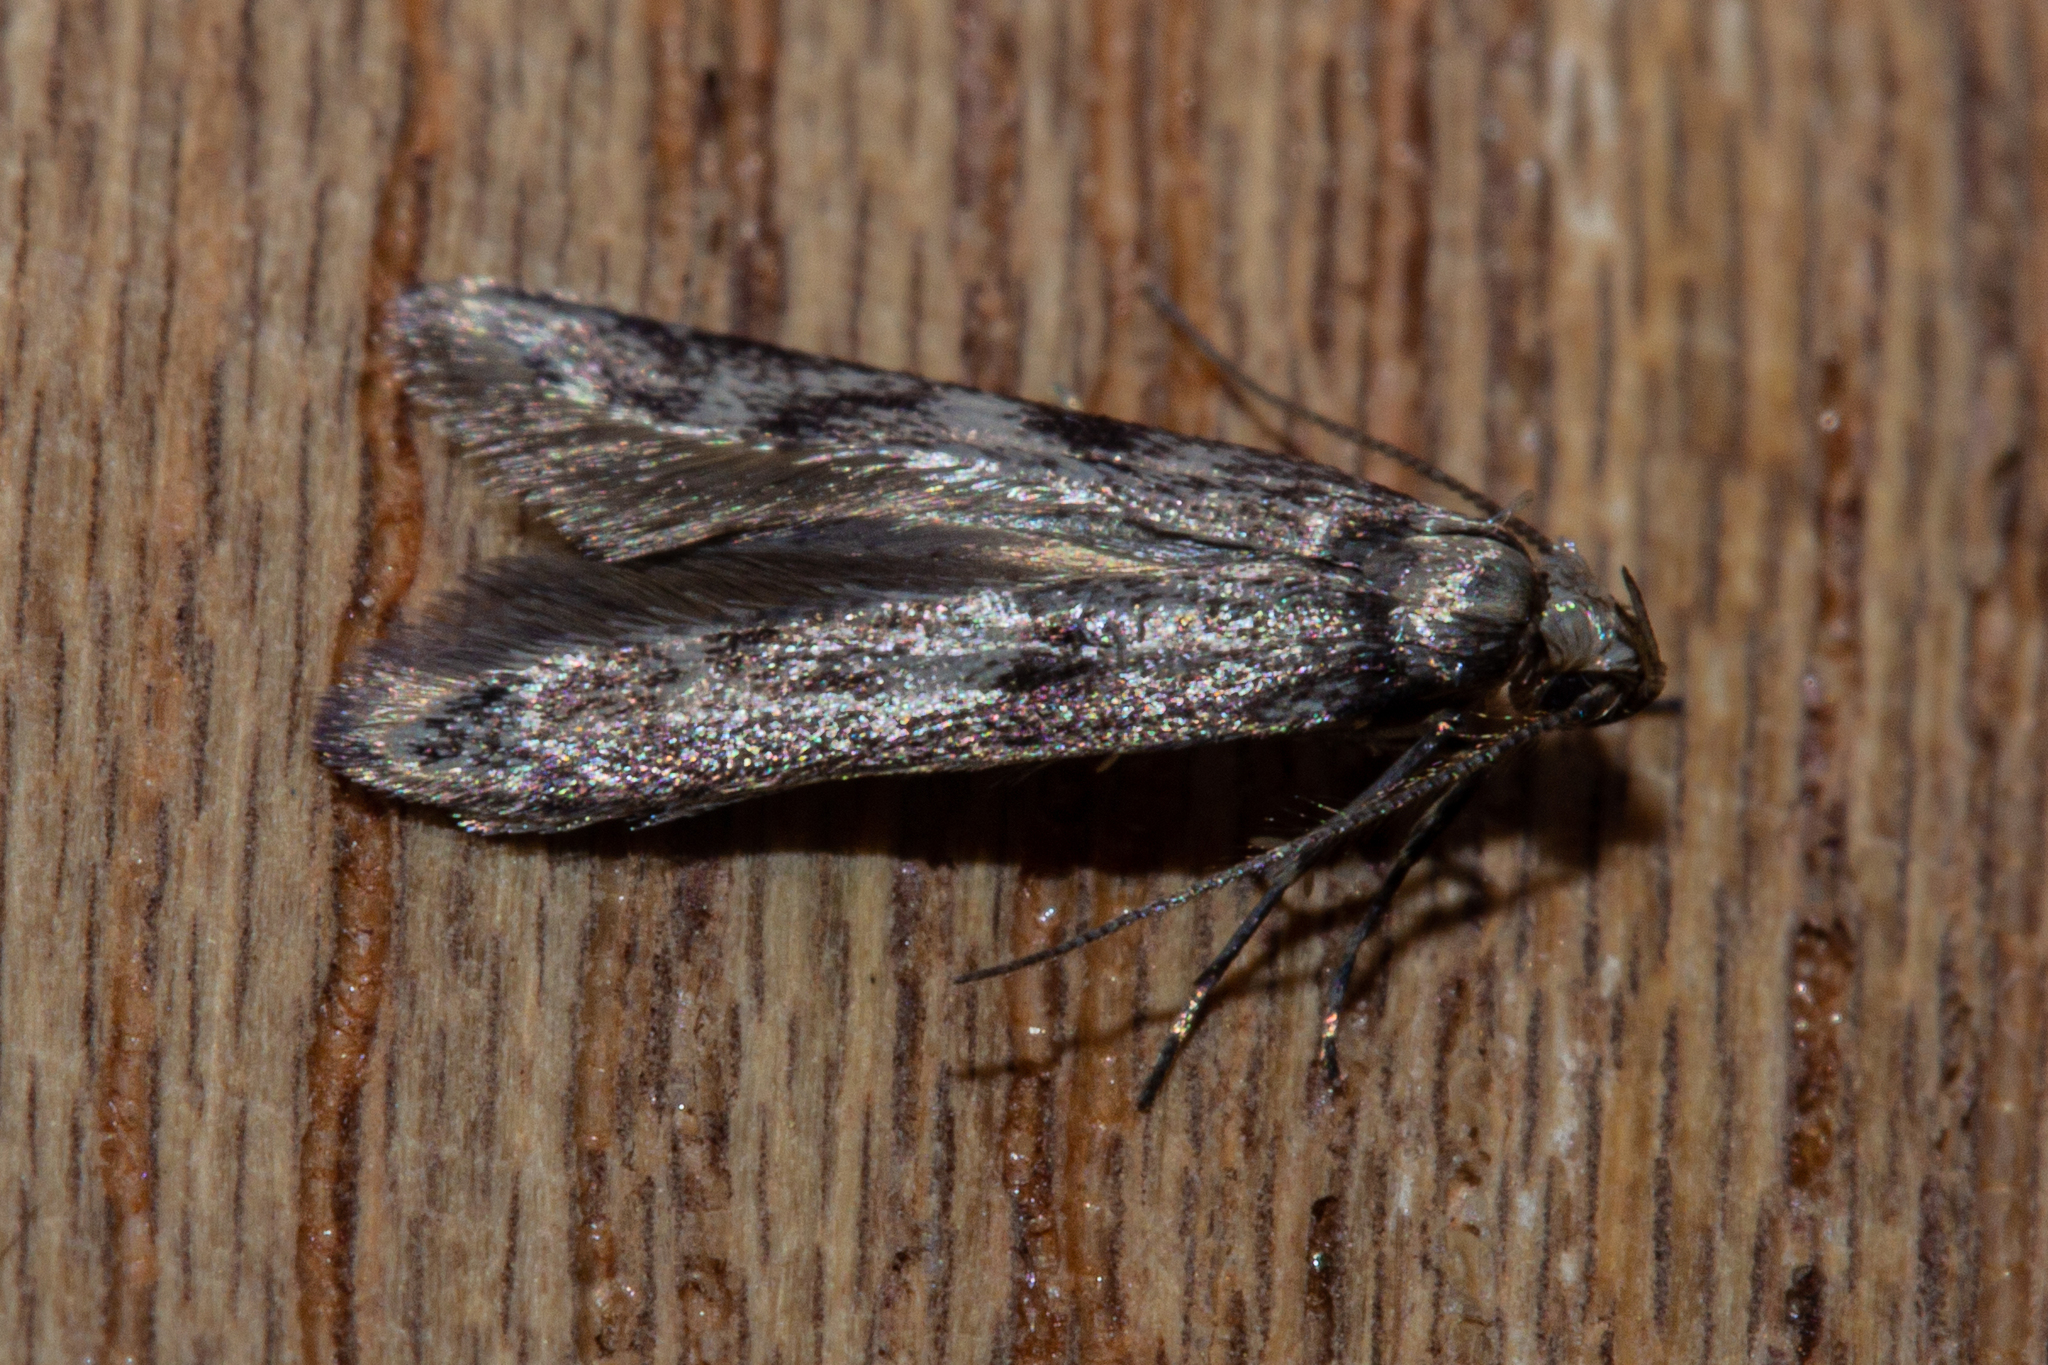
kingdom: Animalia
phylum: Arthropoda
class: Insecta
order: Lepidoptera
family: Gelechiidae
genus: Thiotricha
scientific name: Thiotricha tetraphala
